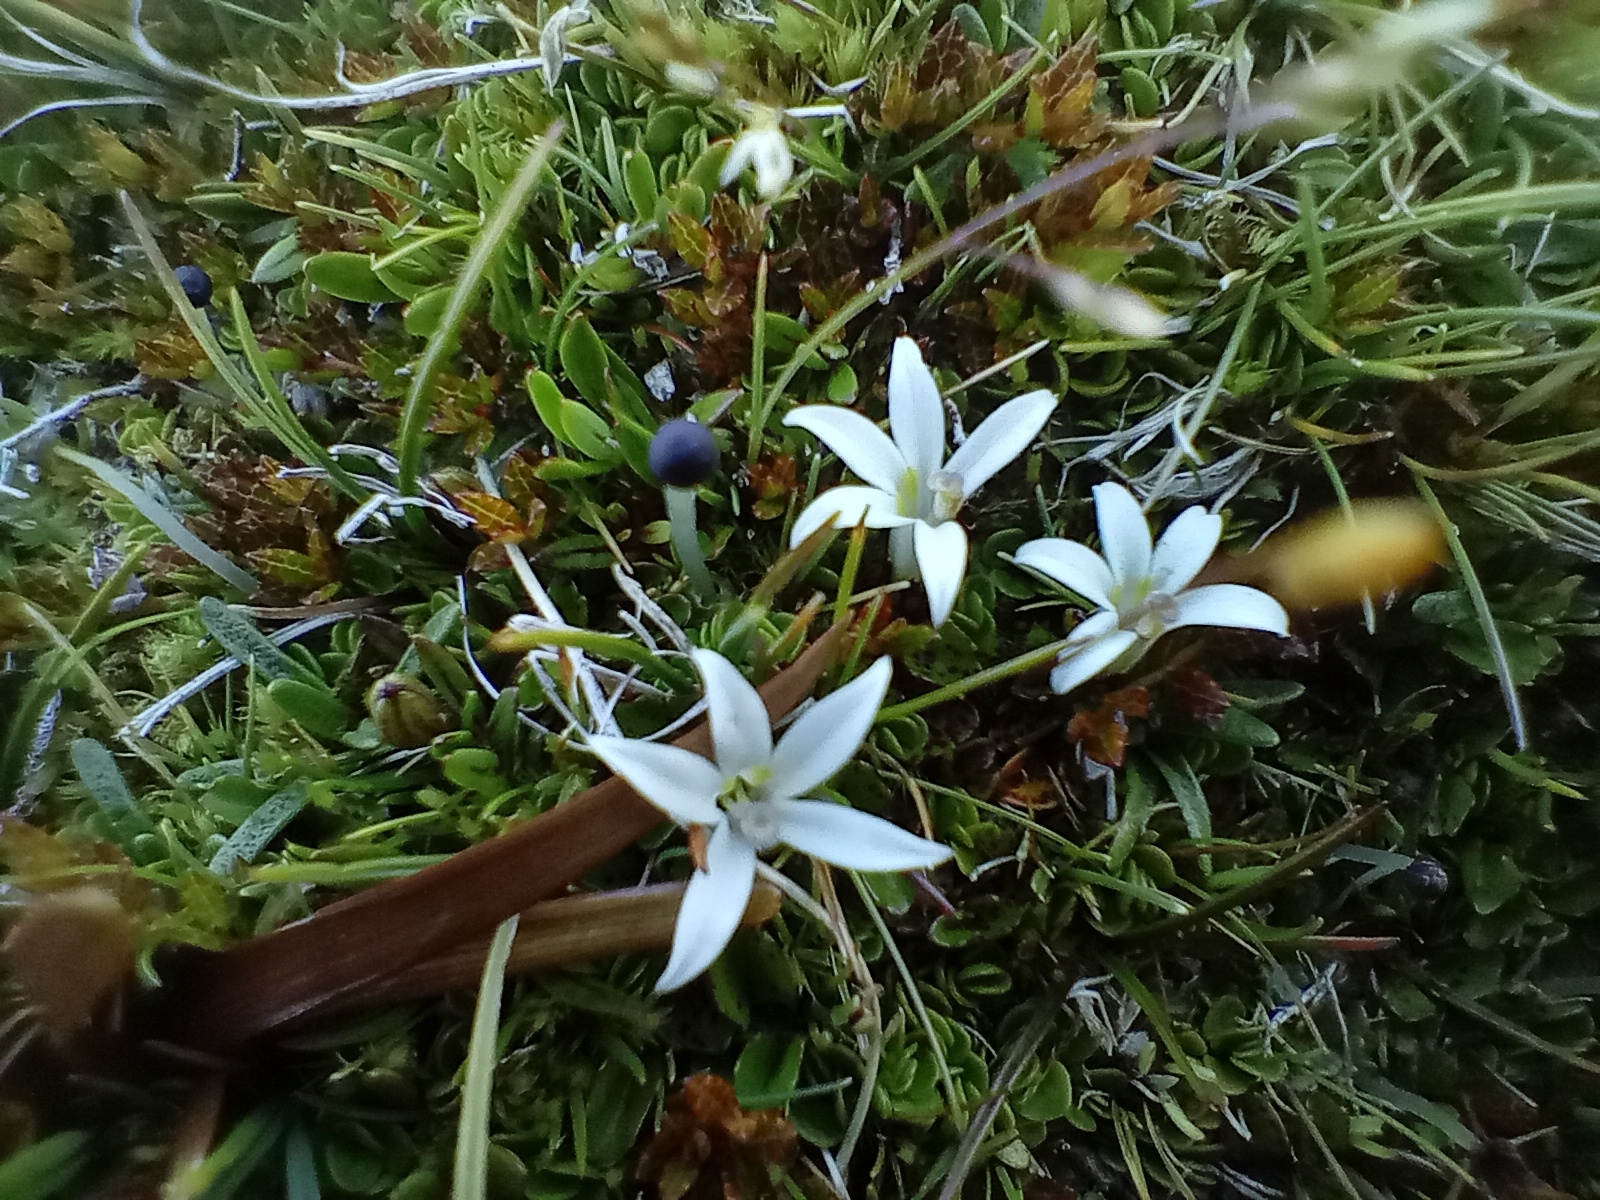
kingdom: Plantae
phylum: Tracheophyta
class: Magnoliopsida
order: Asterales
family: Campanulaceae
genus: Isotoma
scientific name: Isotoma rivalis
